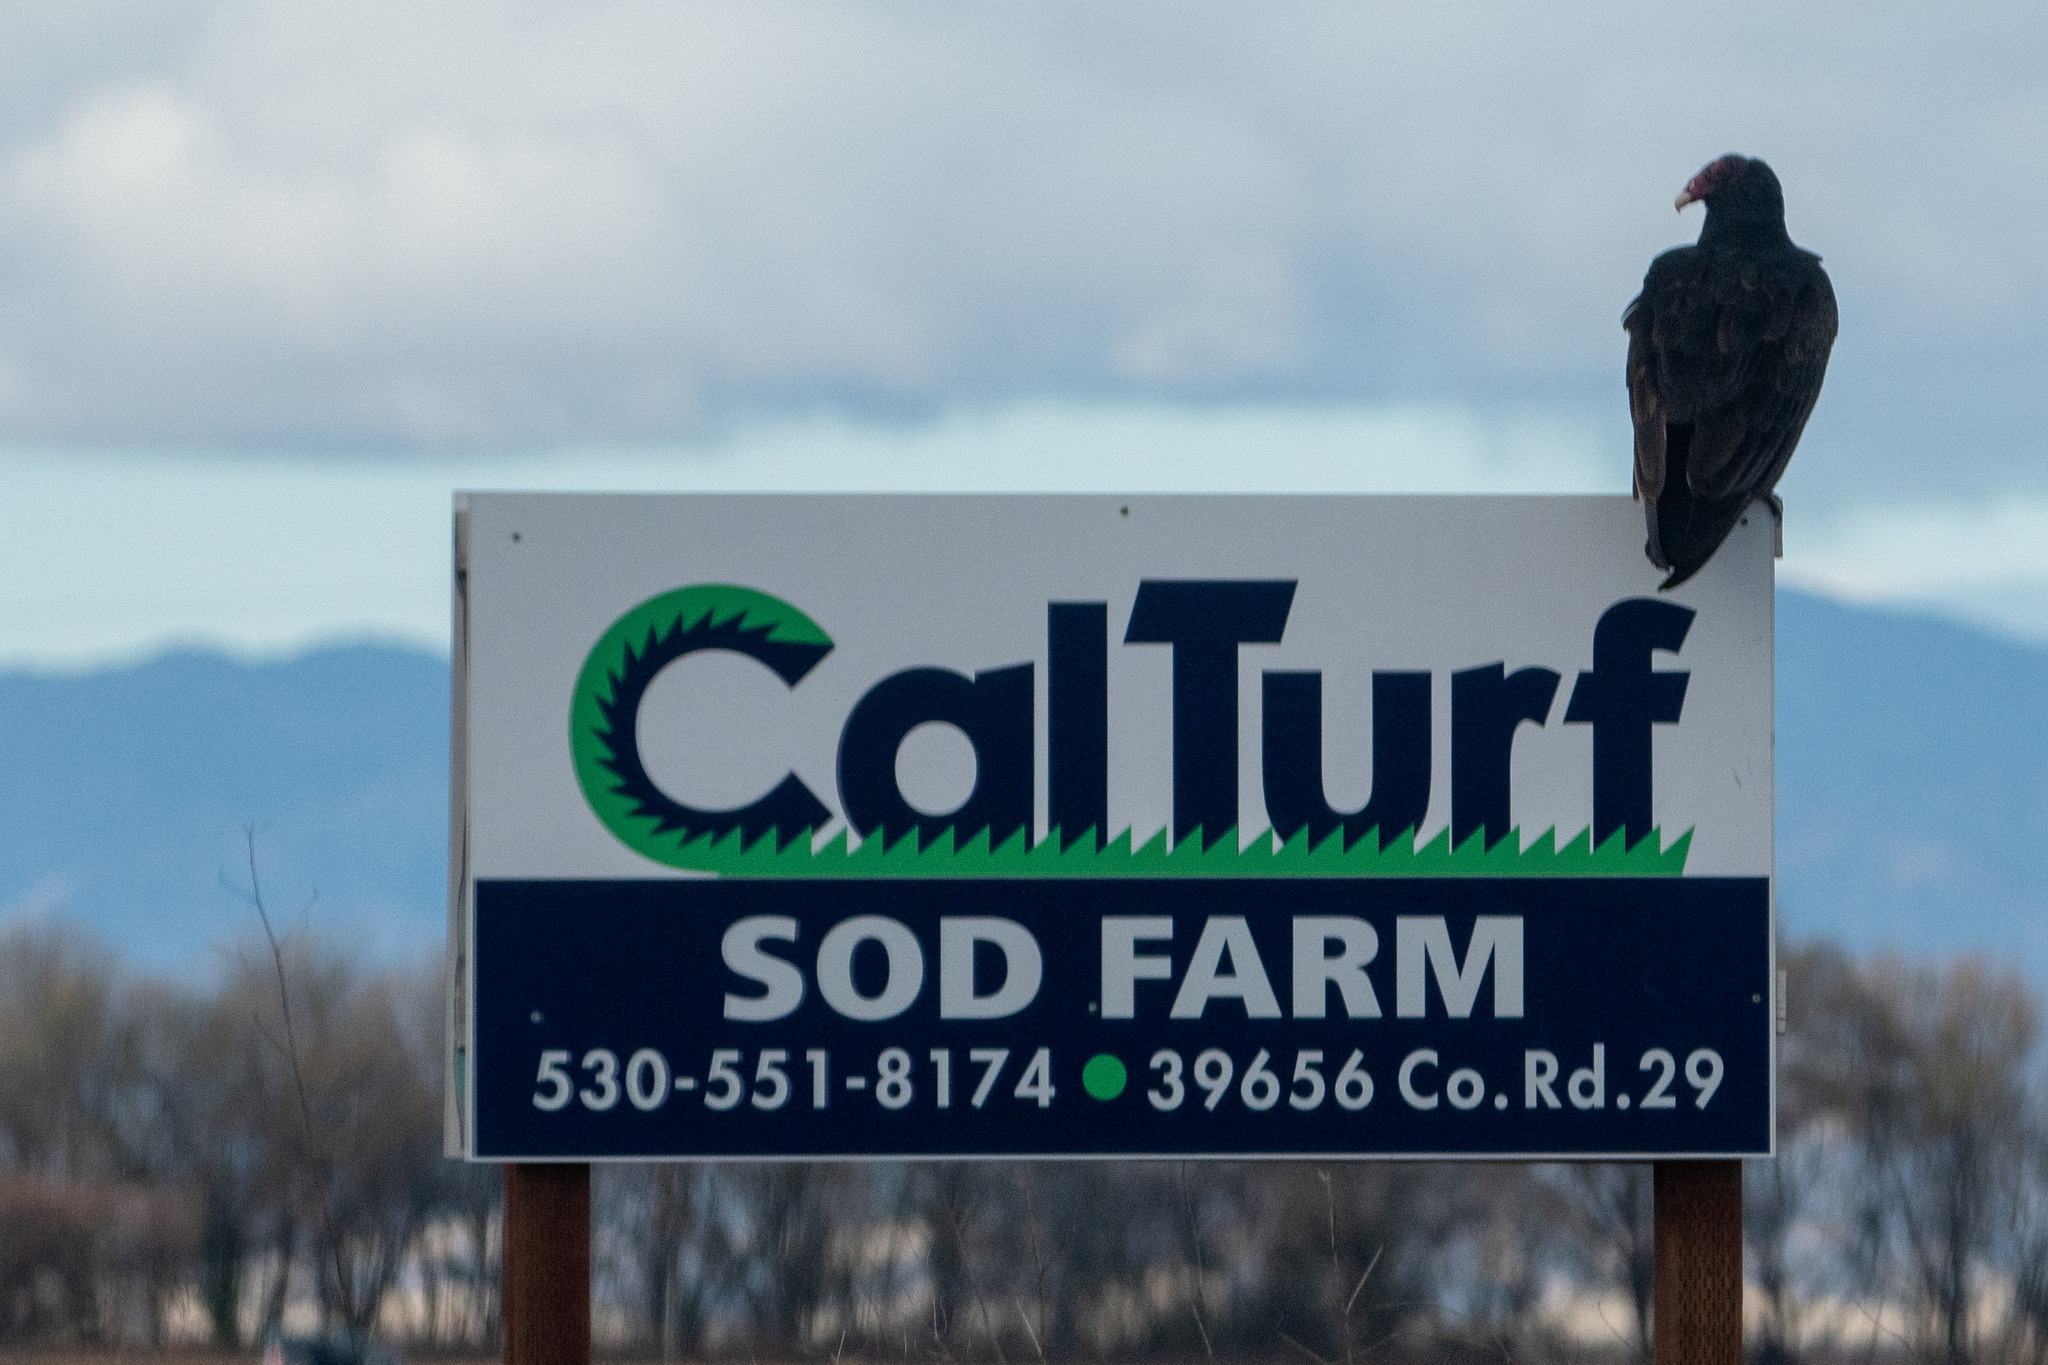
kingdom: Animalia
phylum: Chordata
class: Aves
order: Accipitriformes
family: Cathartidae
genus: Cathartes
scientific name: Cathartes aura
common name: Turkey vulture
